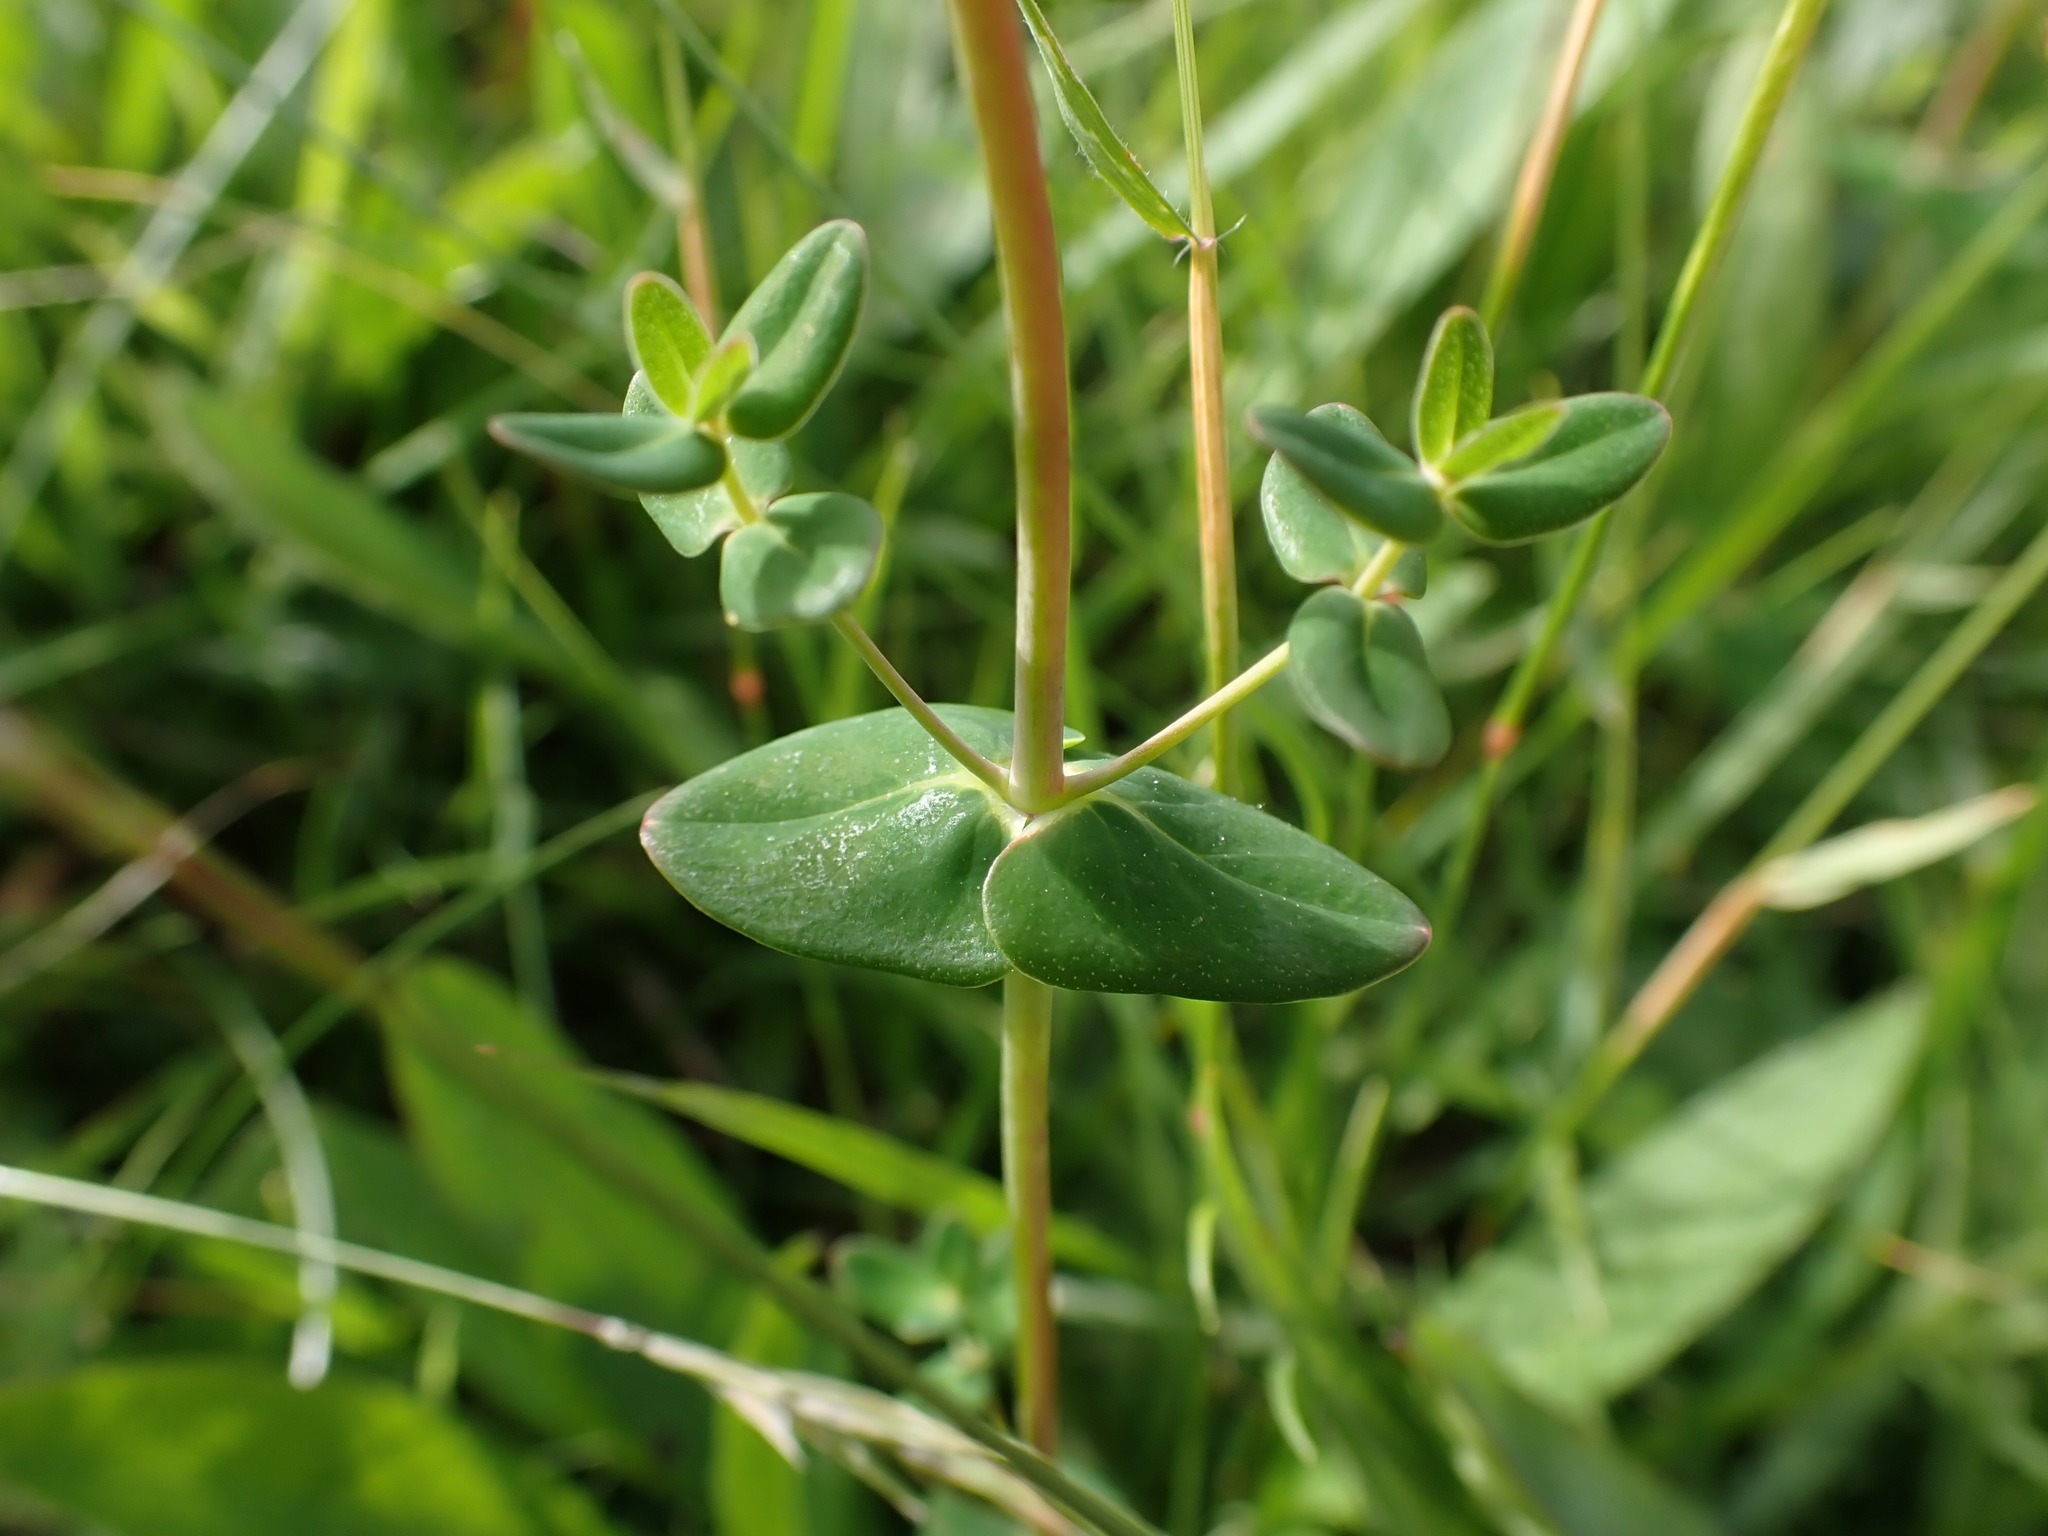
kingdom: Plantae
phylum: Tracheophyta
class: Magnoliopsida
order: Malpighiales
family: Hypericaceae
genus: Hypericum
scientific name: Hypericum pulchrum
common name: Slender st. john's-wort
